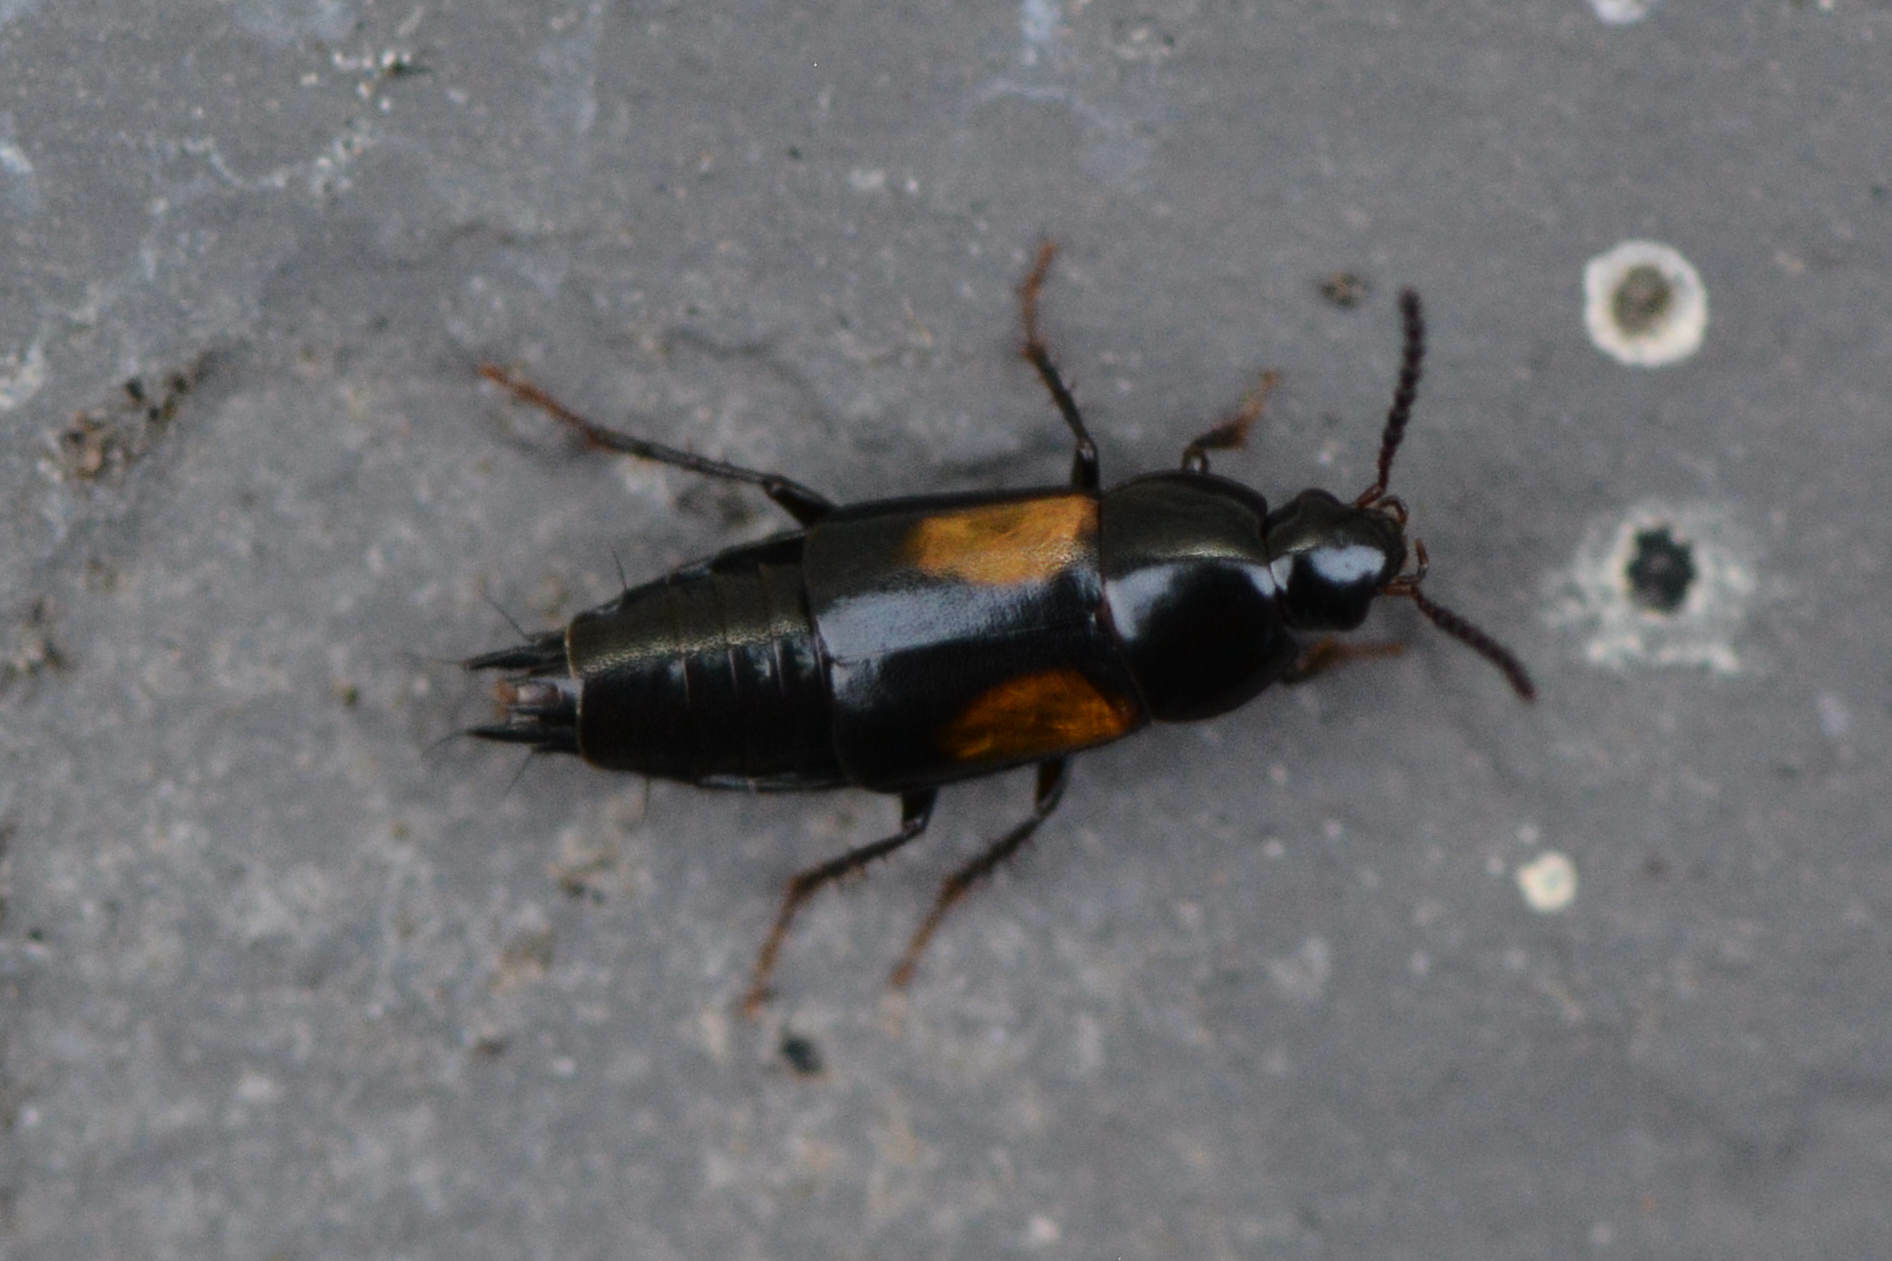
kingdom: Animalia
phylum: Arthropoda
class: Insecta
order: Coleoptera
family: Staphylinidae
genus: Tachinus
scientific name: Tachinus subterraneus
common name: Staph beetle
